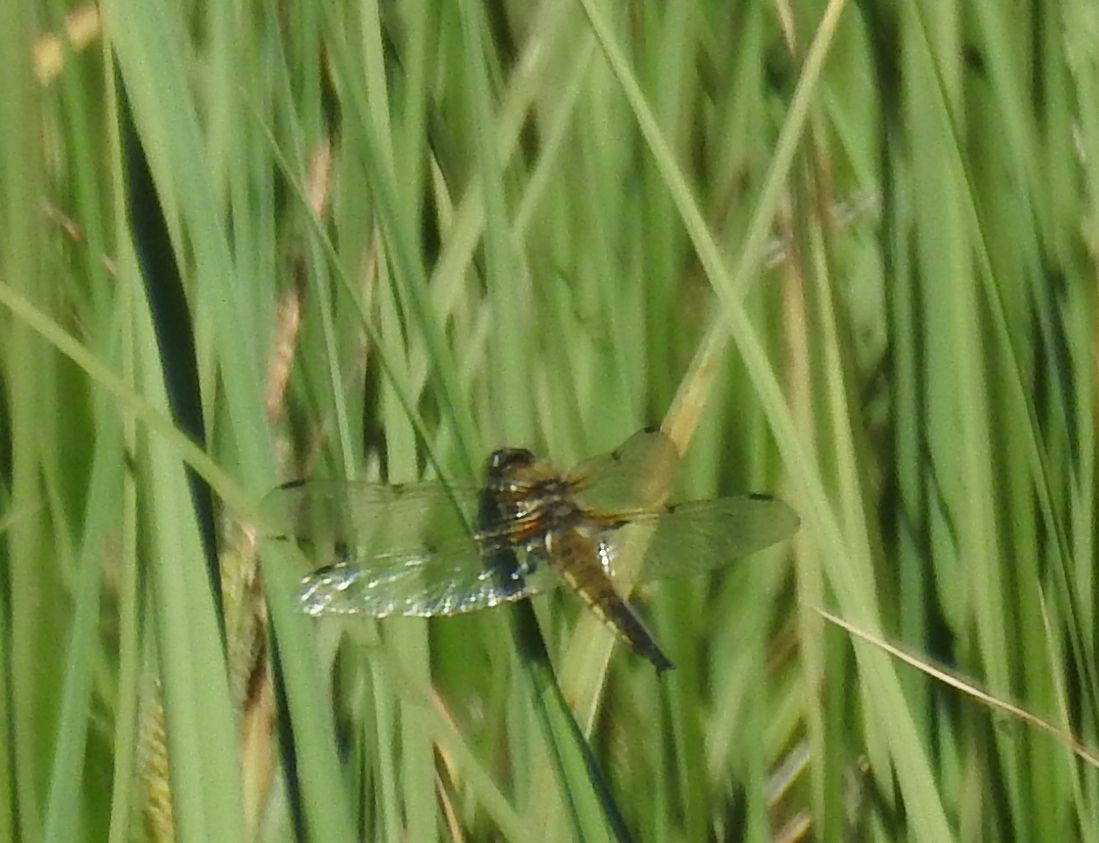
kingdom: Animalia
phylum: Arthropoda
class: Insecta
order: Odonata
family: Libellulidae
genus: Libellula
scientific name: Libellula quadrimaculata
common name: Four-spotted chaser
